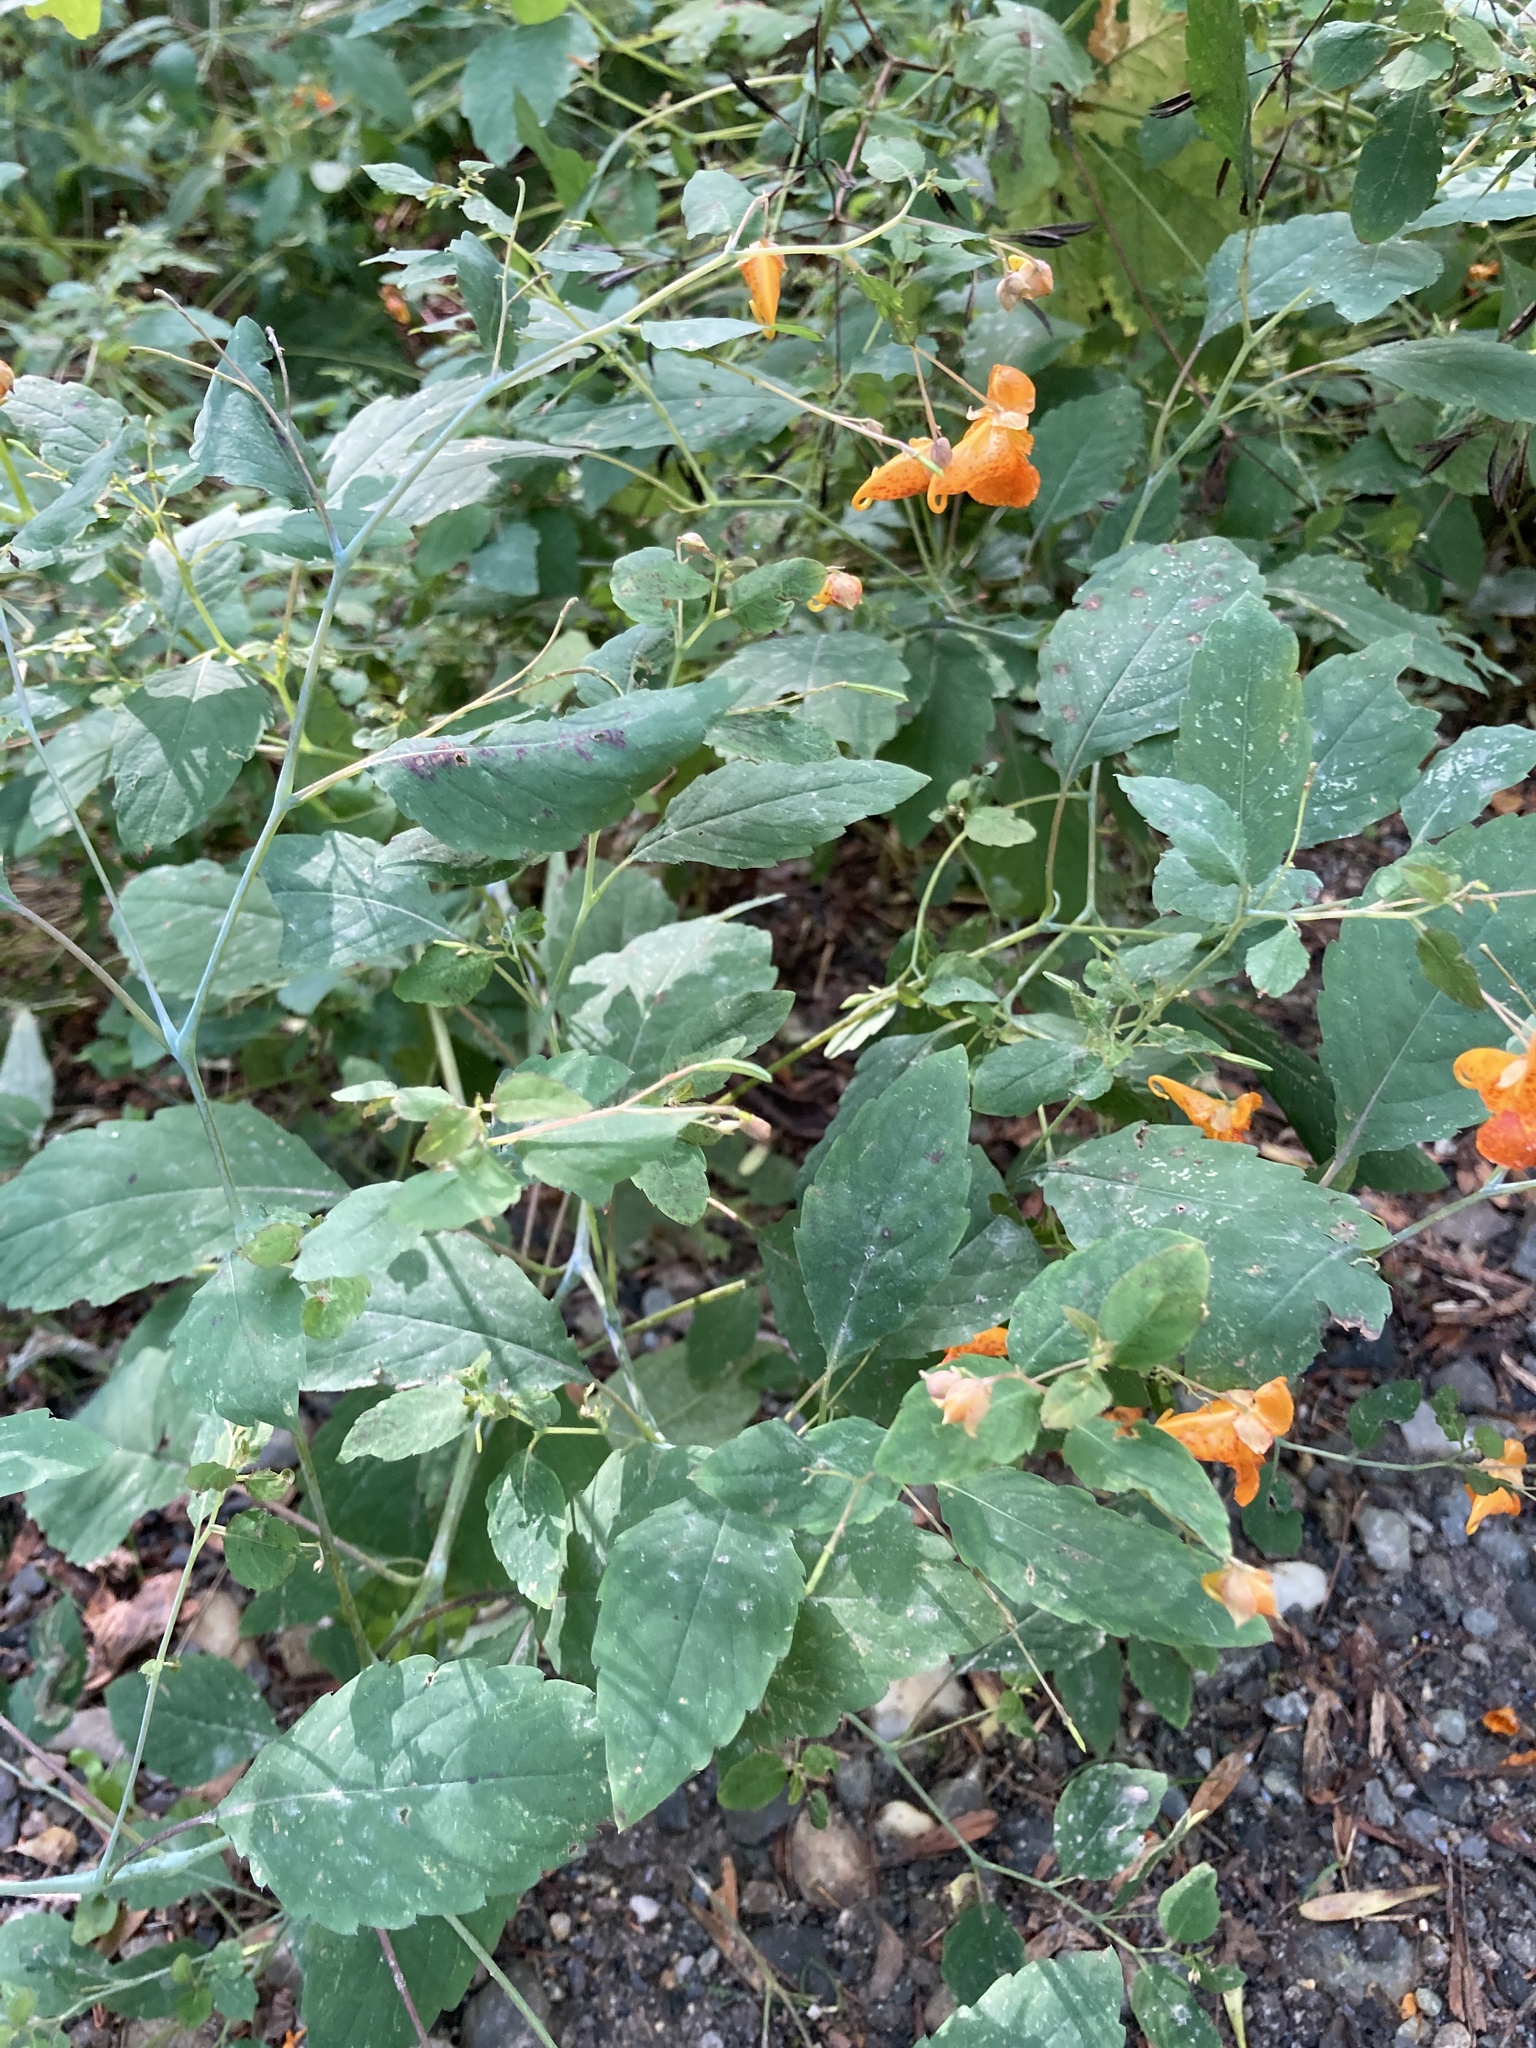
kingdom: Plantae
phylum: Tracheophyta
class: Magnoliopsida
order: Ericales
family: Balsaminaceae
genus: Impatiens
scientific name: Impatiens capensis
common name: Orange balsam
